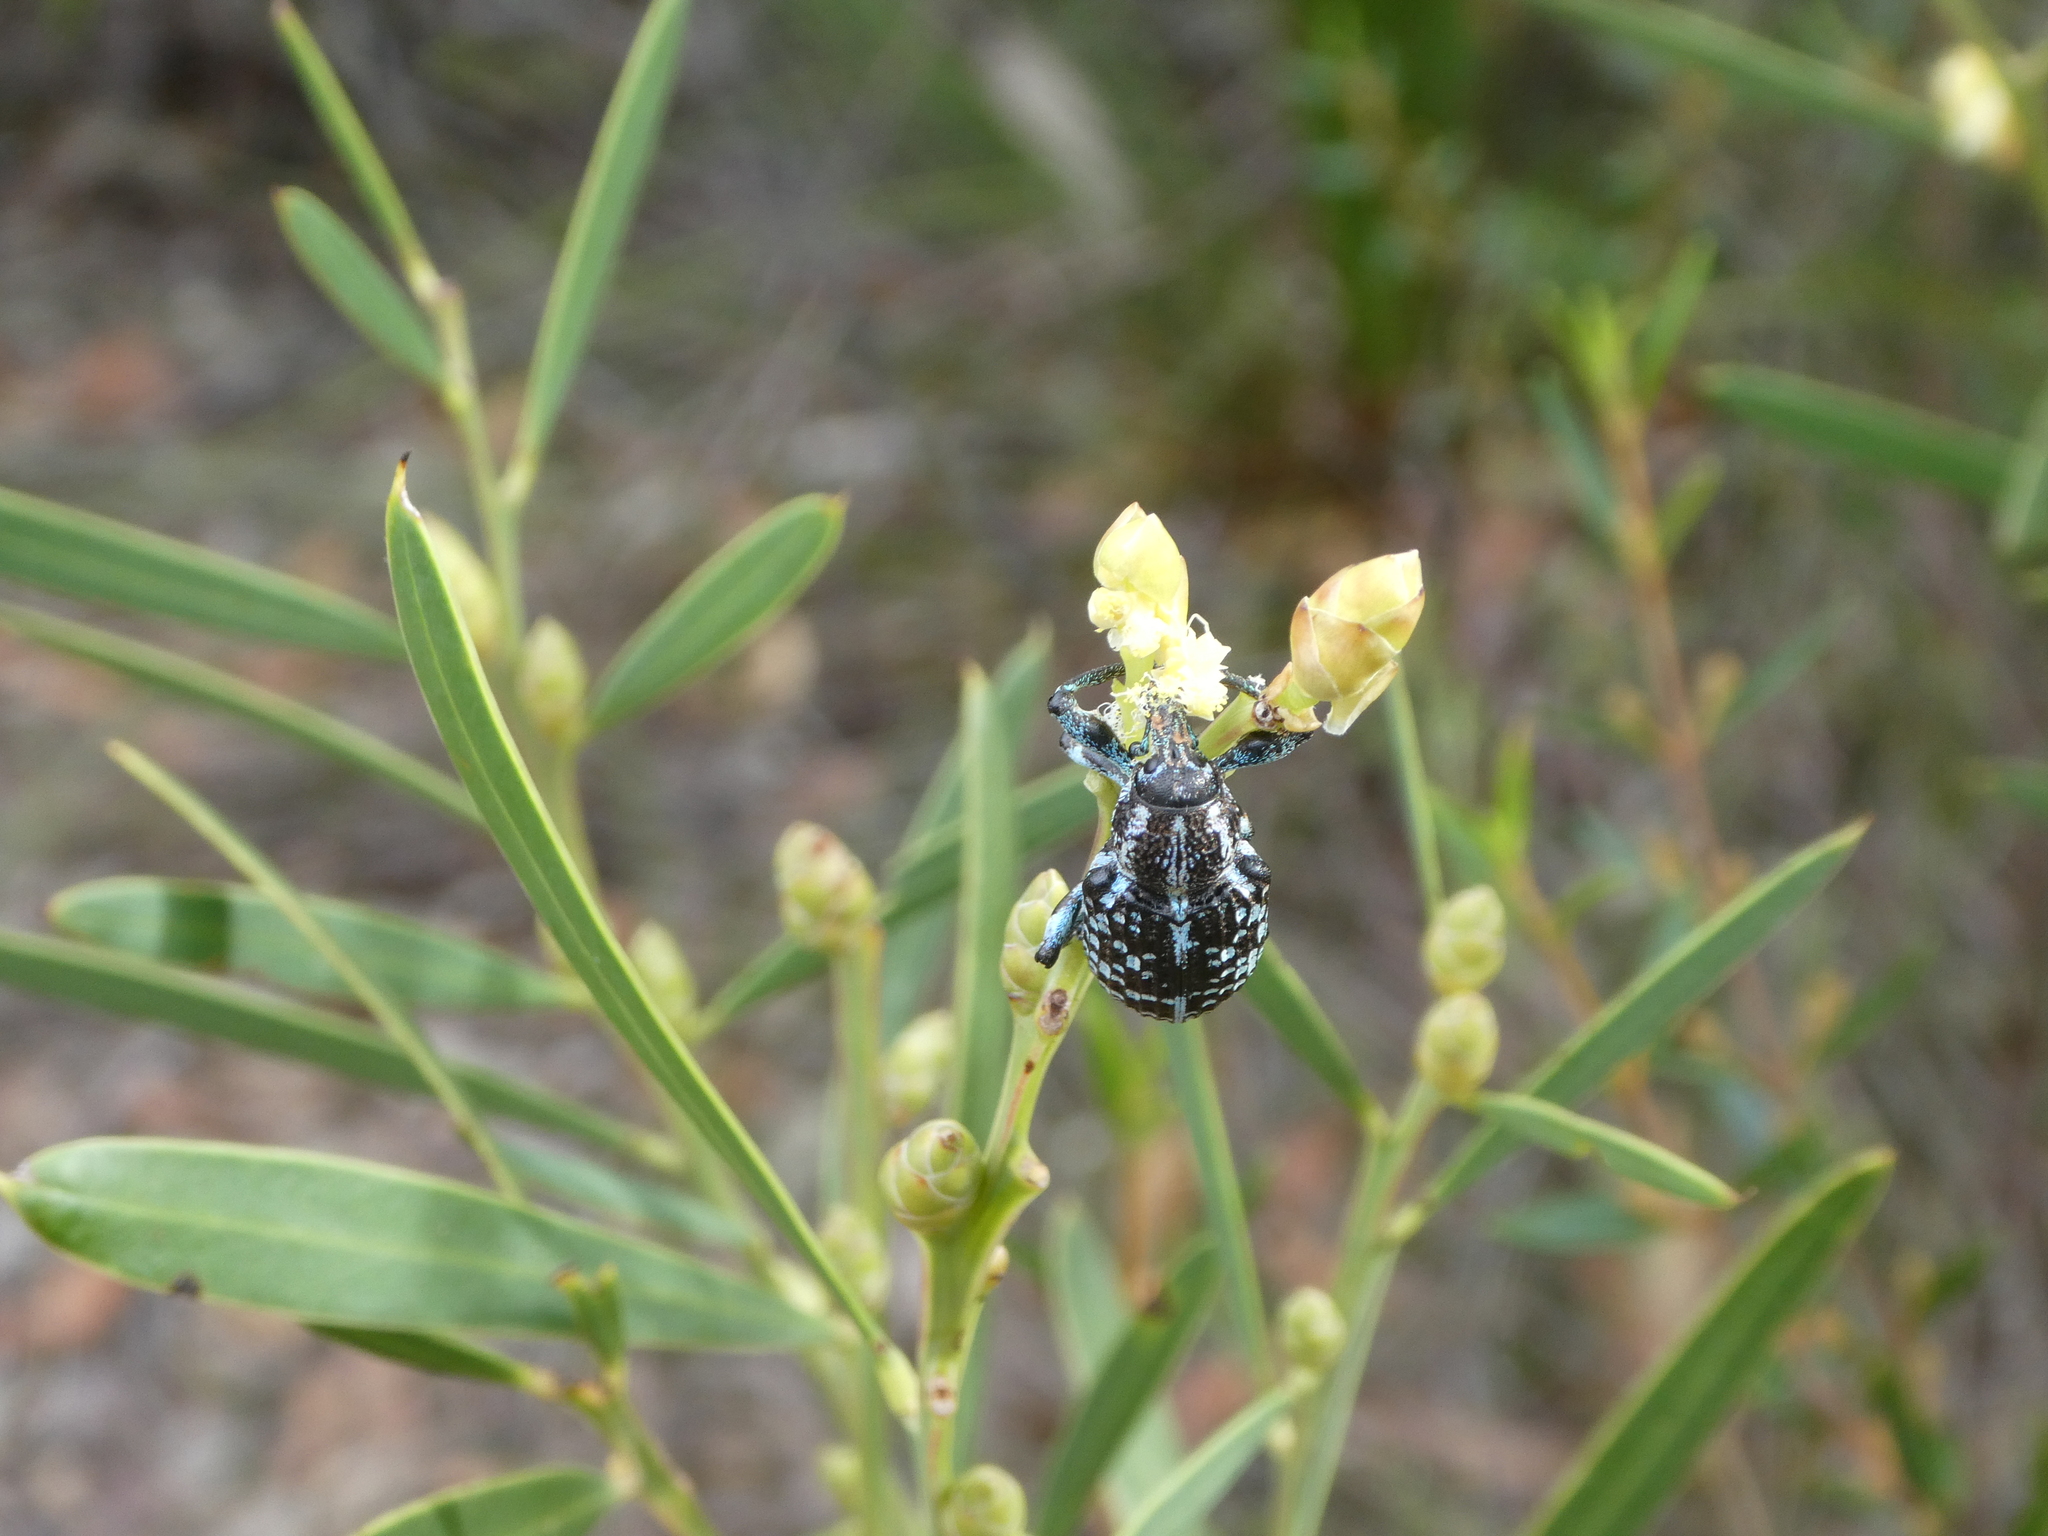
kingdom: Animalia
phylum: Arthropoda
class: Insecta
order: Coleoptera
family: Curculionidae
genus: Chrysolopus
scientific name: Chrysolopus spectabilis
